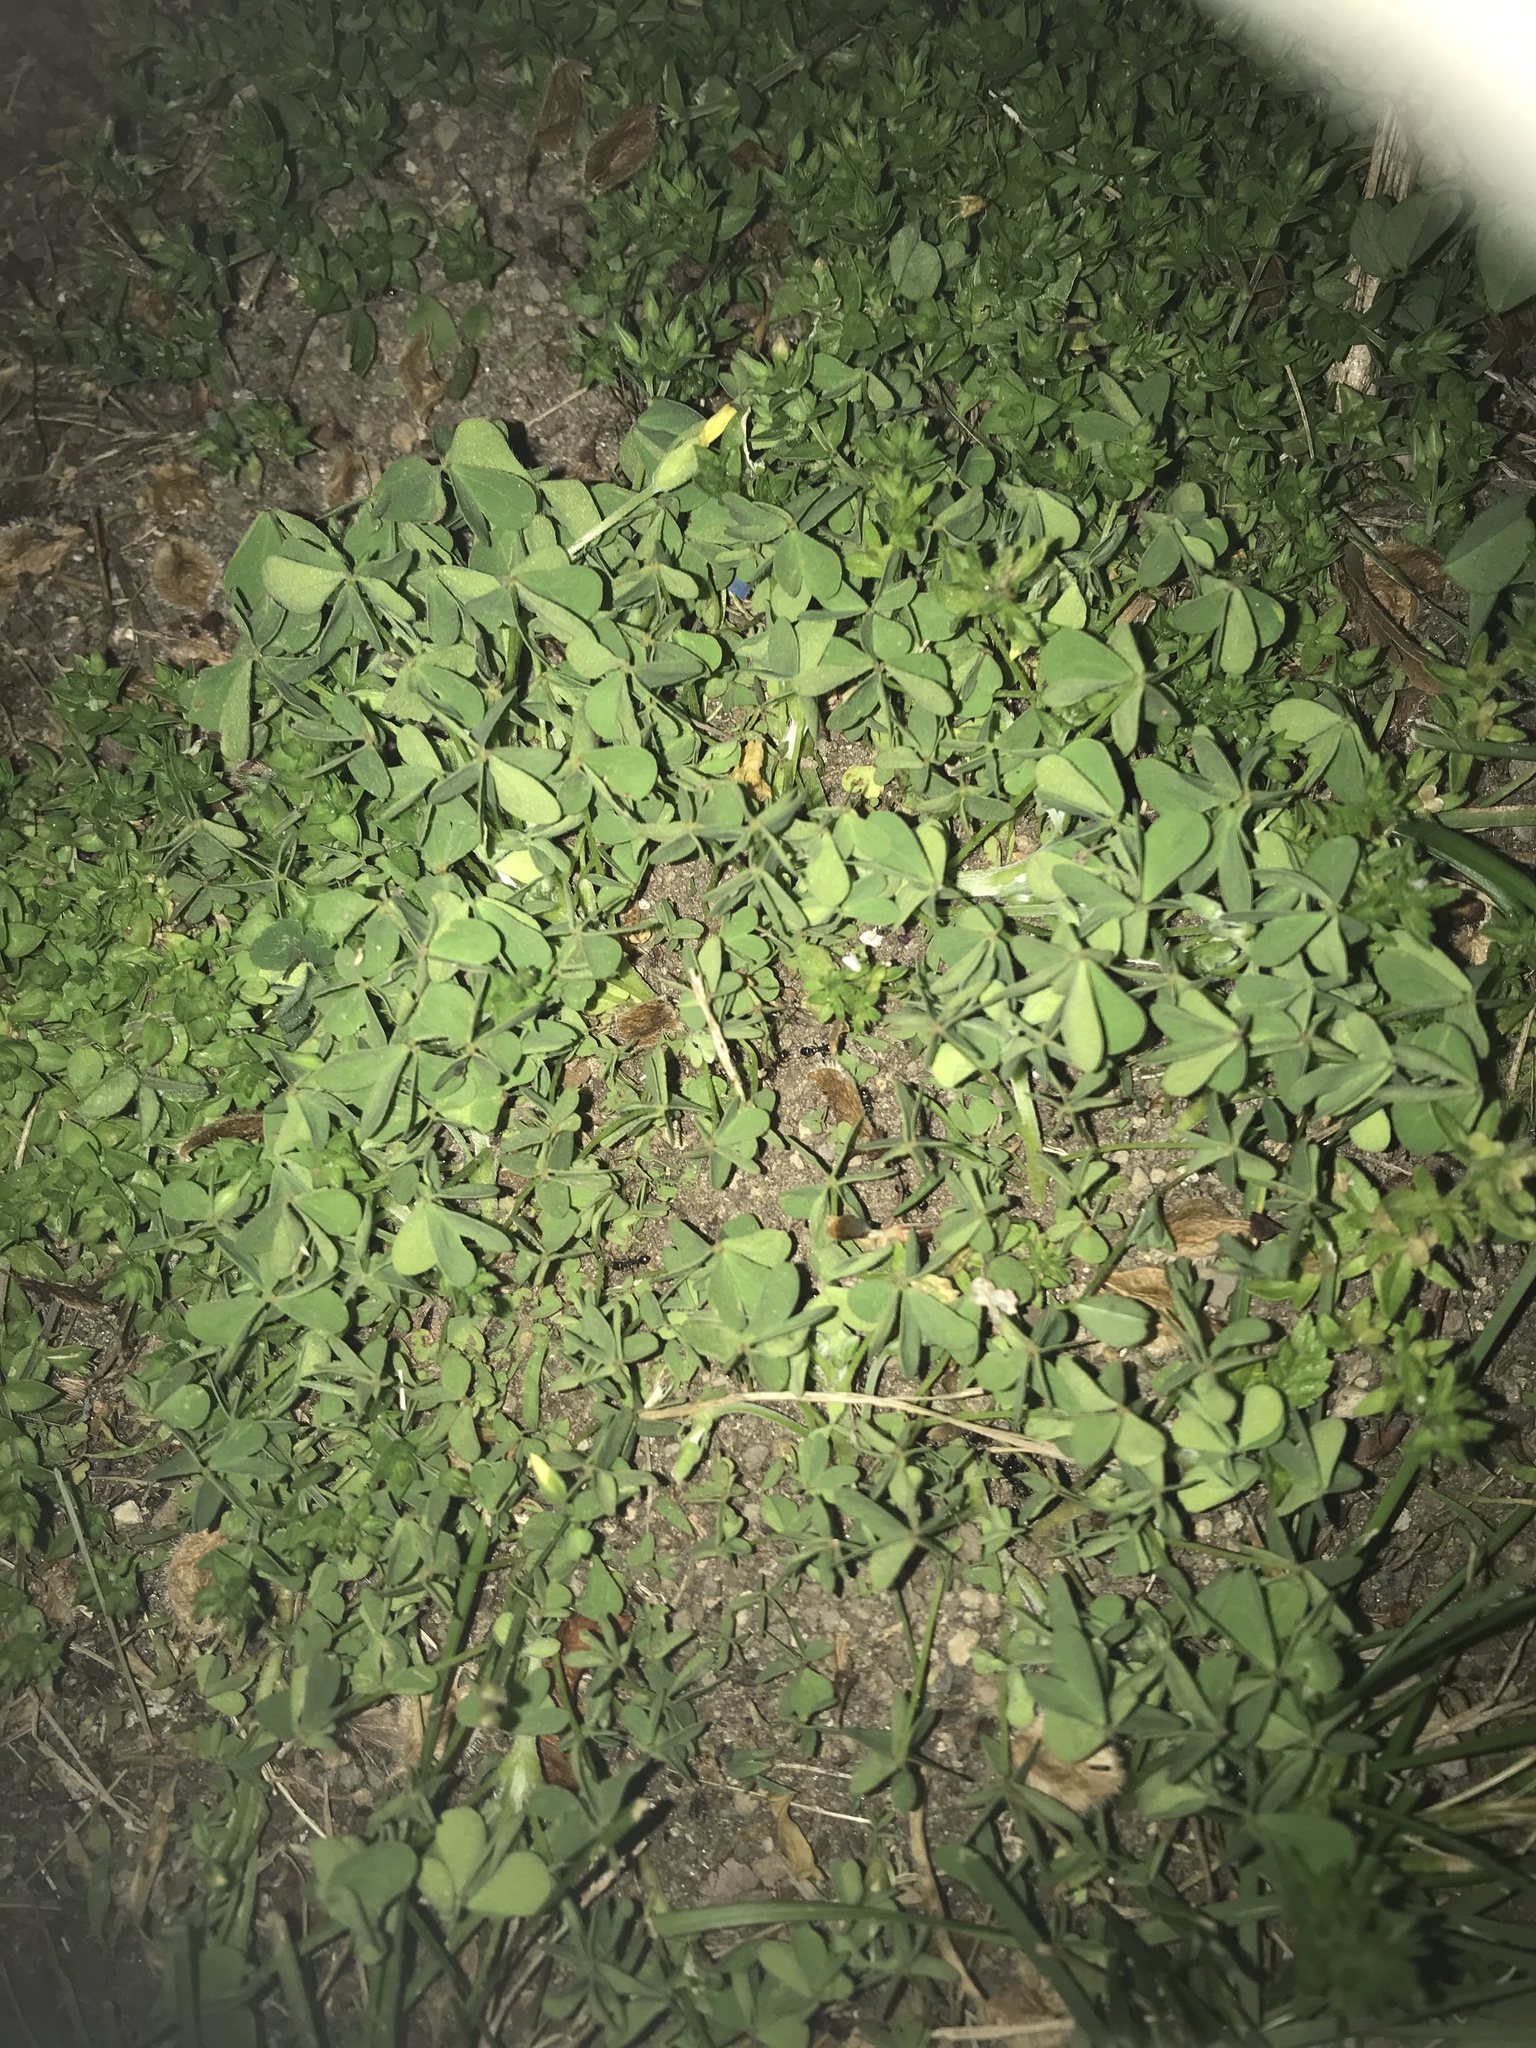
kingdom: Plantae
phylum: Tracheophyta
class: Magnoliopsida
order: Oxalidales
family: Oxalidaceae
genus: Oxalis
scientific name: Oxalis
